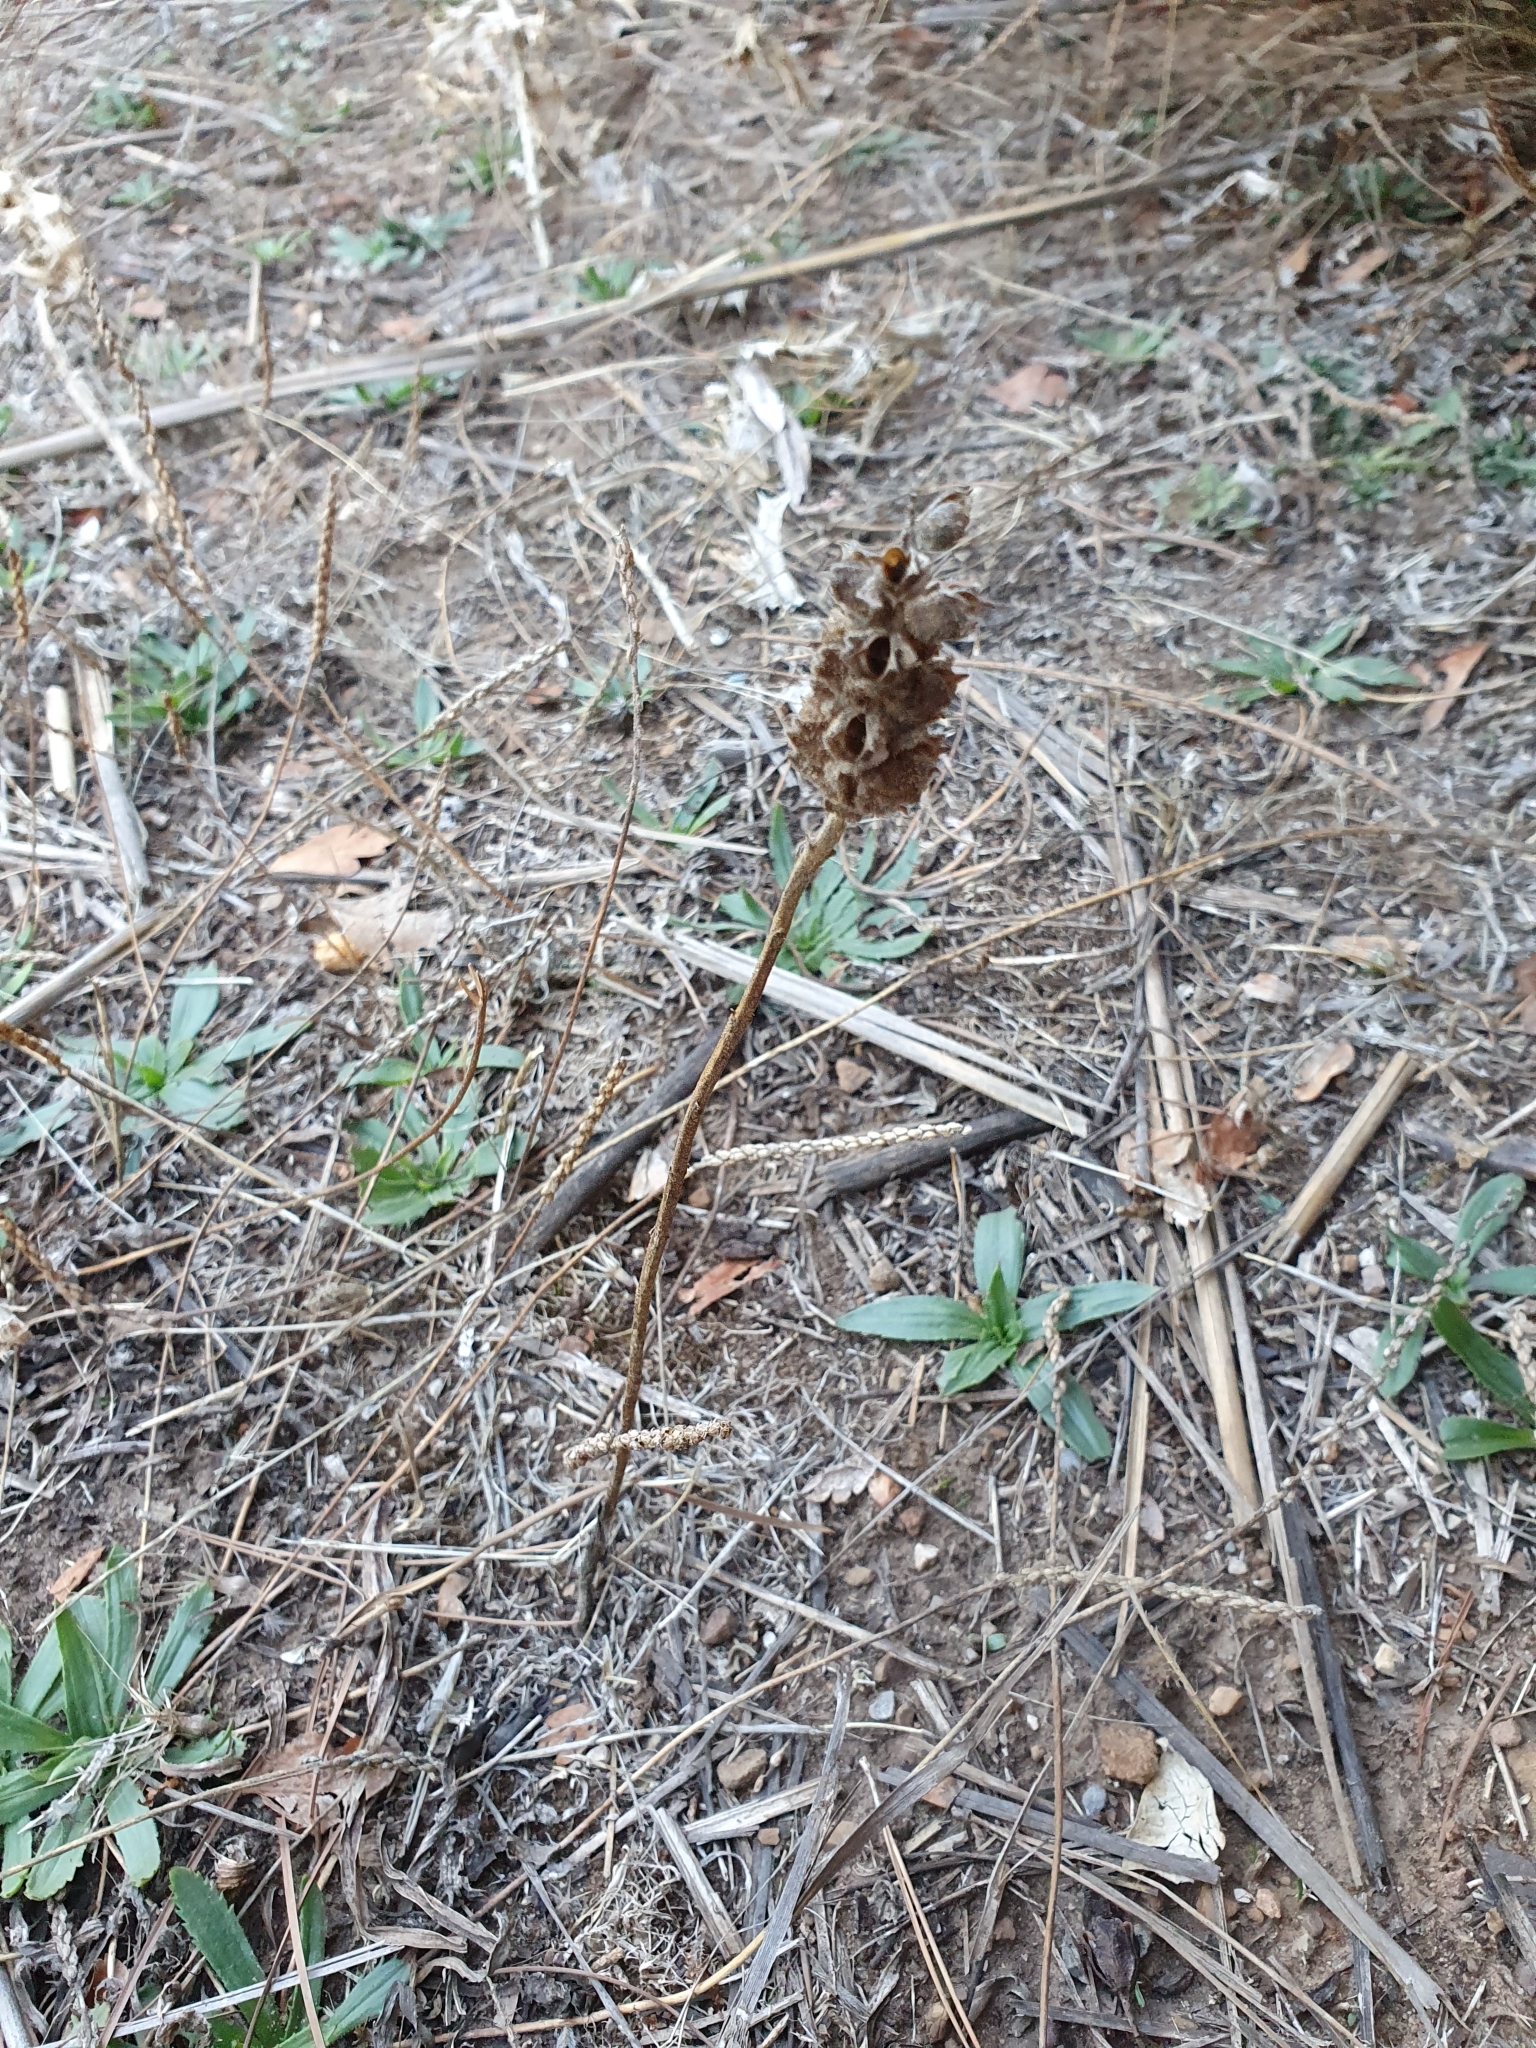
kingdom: Plantae
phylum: Tracheophyta
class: Magnoliopsida
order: Lamiales
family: Orobanchaceae
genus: Bellardia
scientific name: Bellardia trixago
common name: Mediterranean lineseed
